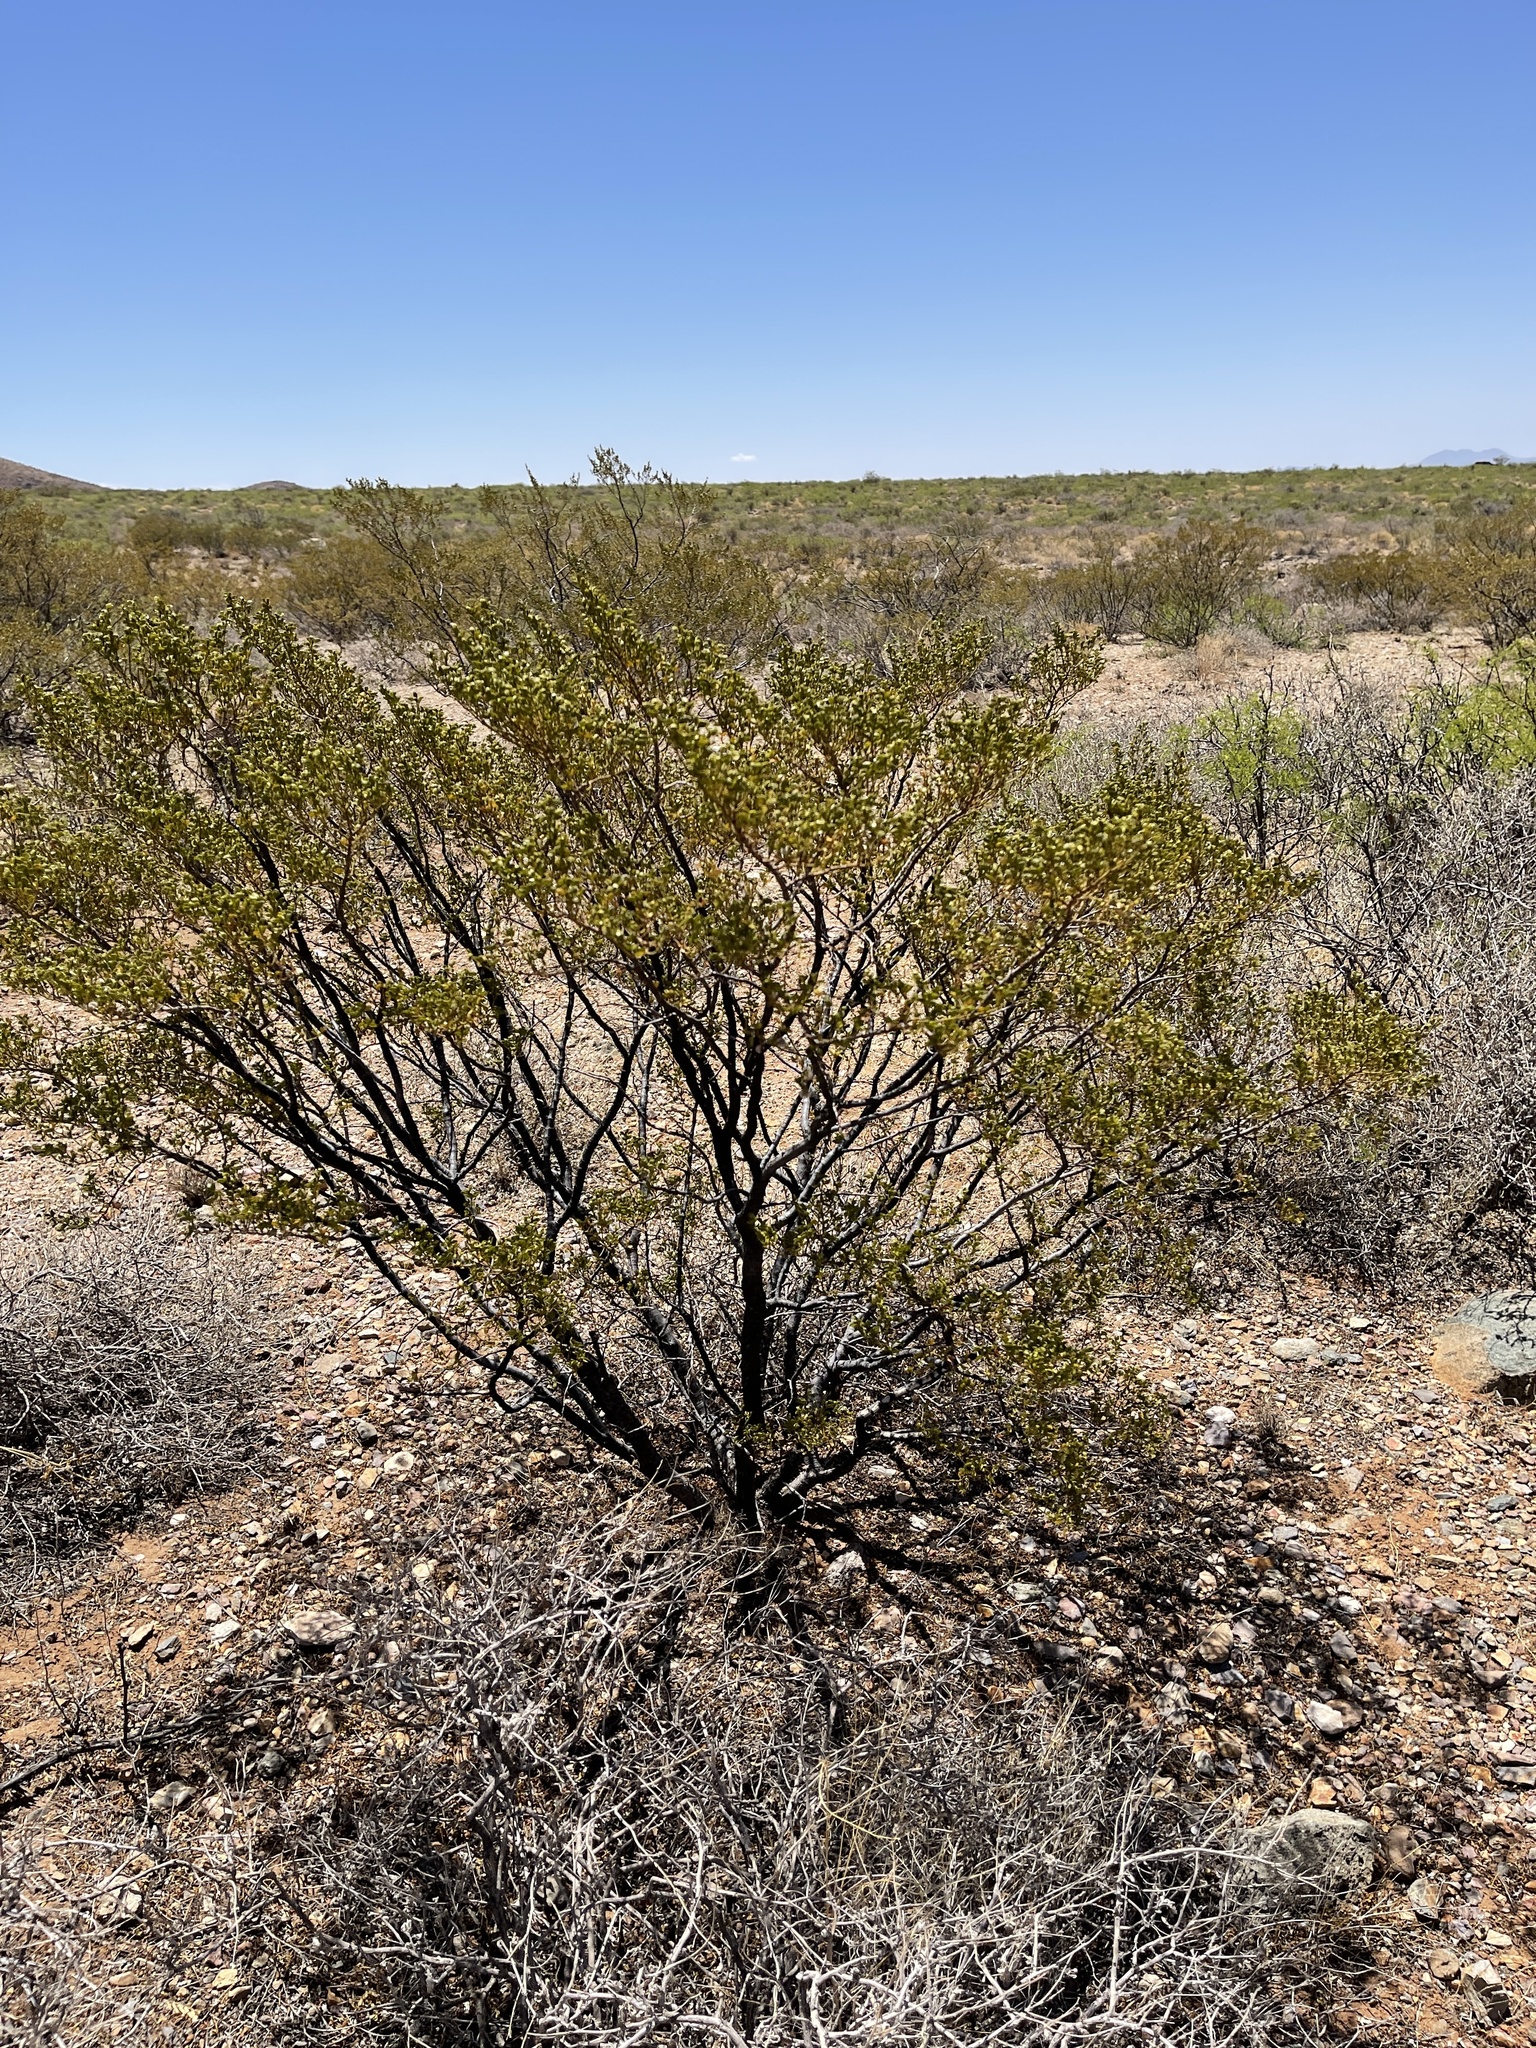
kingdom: Plantae
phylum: Tracheophyta
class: Magnoliopsida
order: Zygophyllales
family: Zygophyllaceae
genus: Larrea
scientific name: Larrea tridentata
